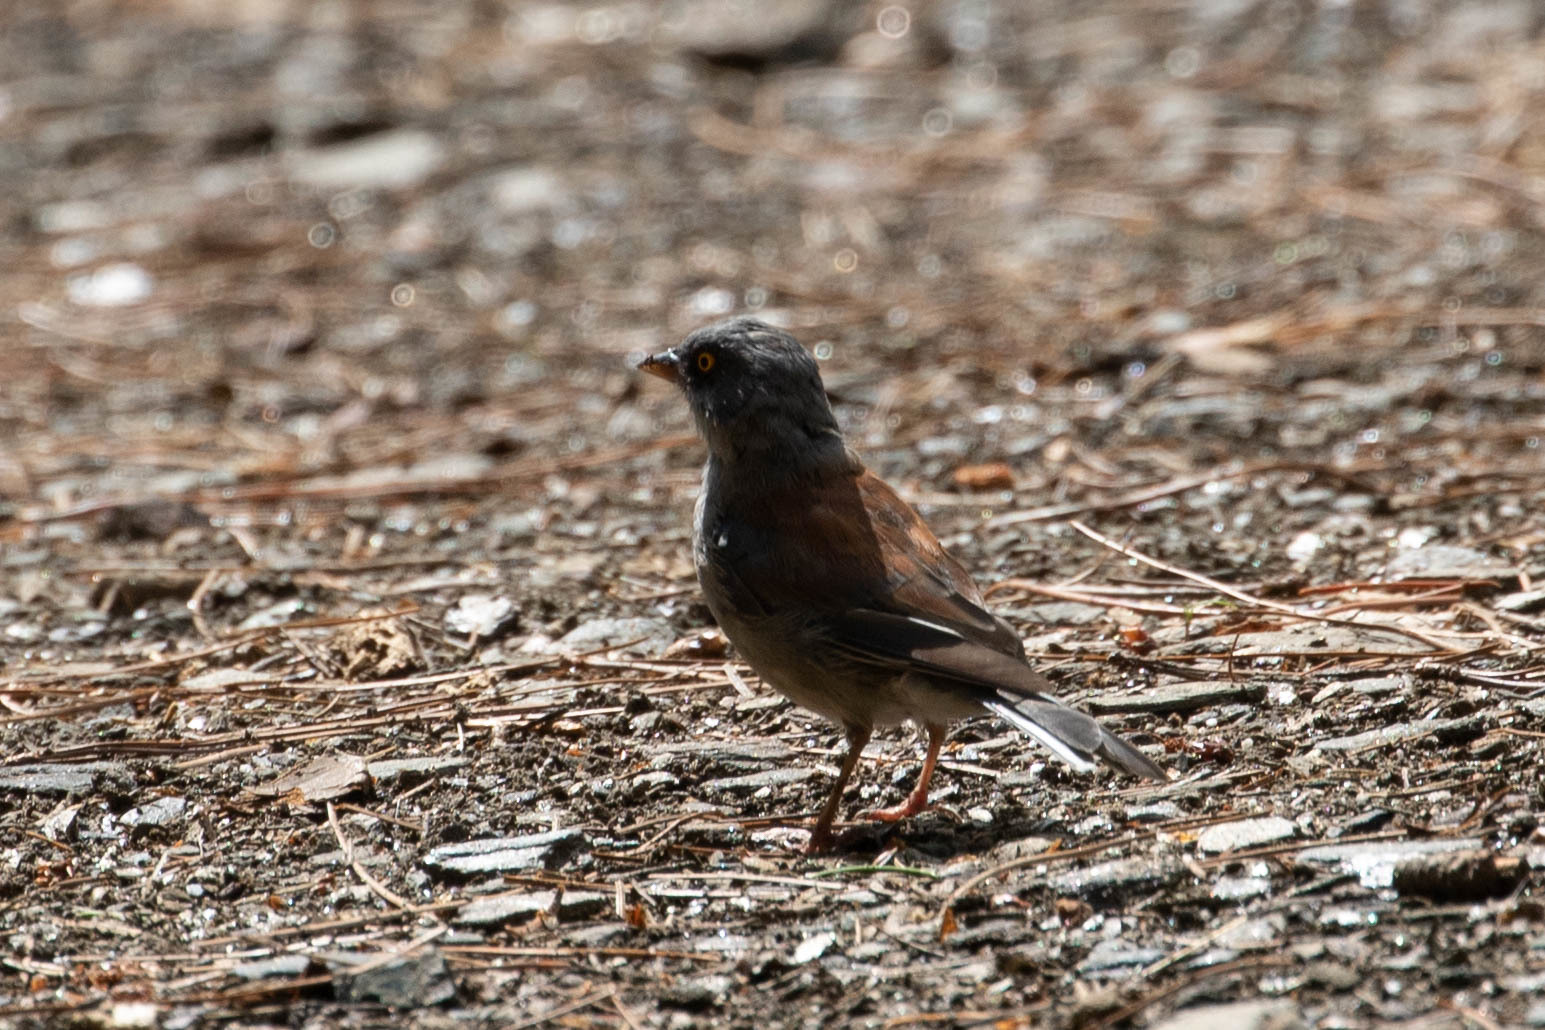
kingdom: Animalia
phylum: Chordata
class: Aves
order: Passeriformes
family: Passerellidae
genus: Junco
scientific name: Junco phaeonotus
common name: Yellow-eyed junco
